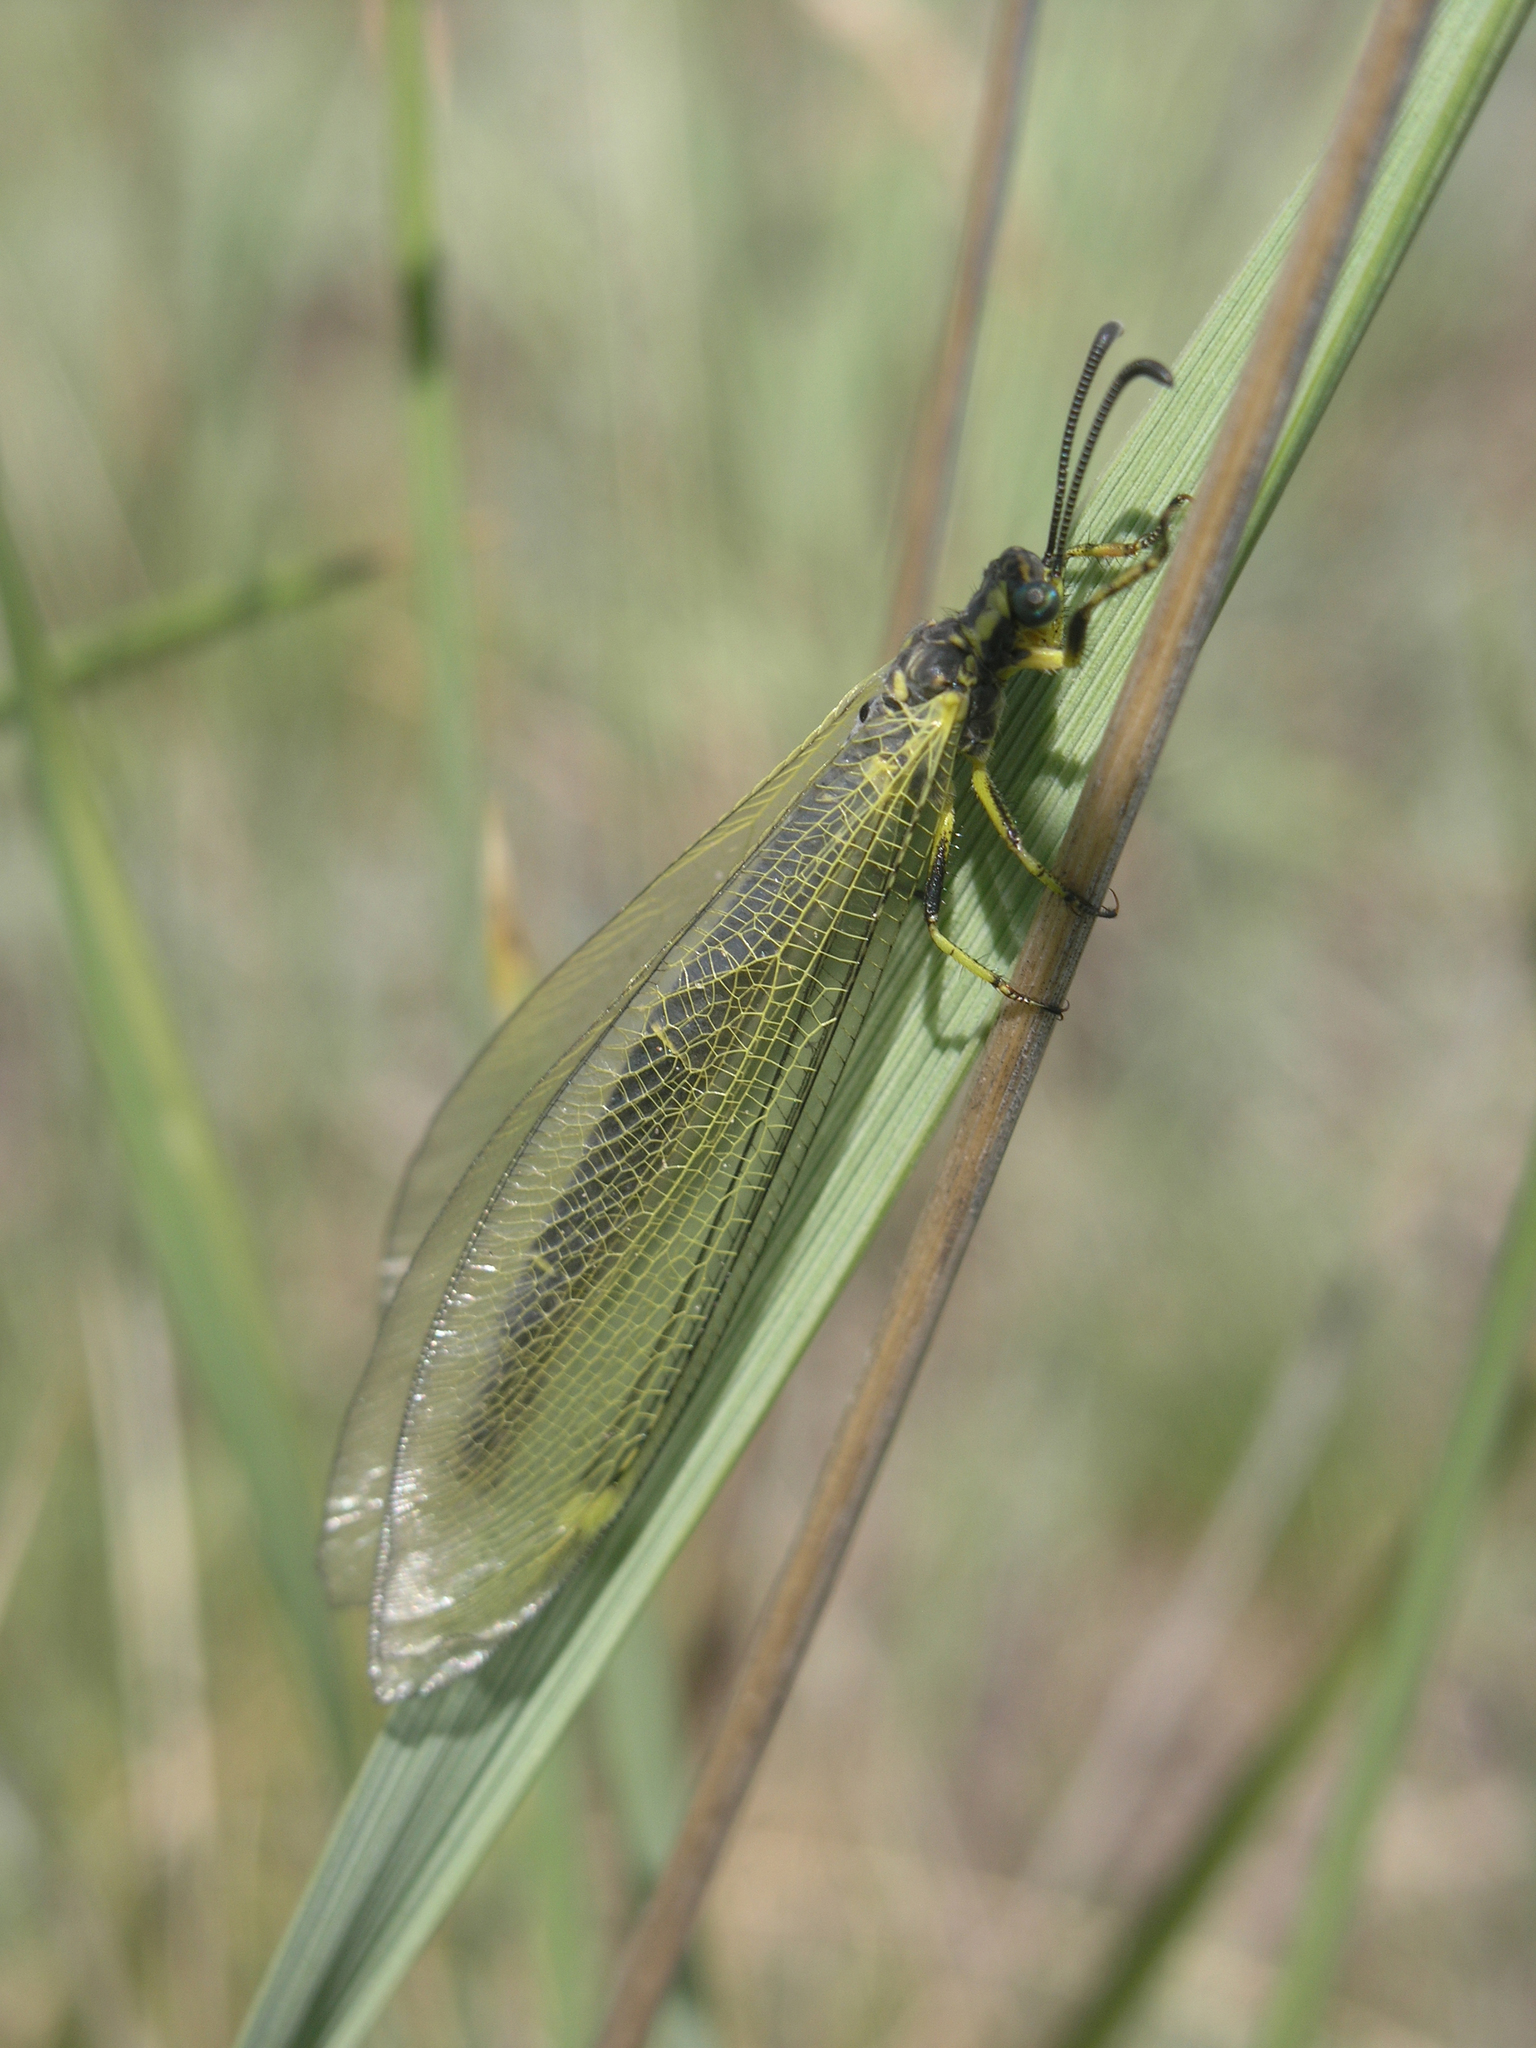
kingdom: Animalia
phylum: Arthropoda
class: Insecta
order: Neuroptera
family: Myrmeleontidae
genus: Deutoleon
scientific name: Deutoleon lineatus
